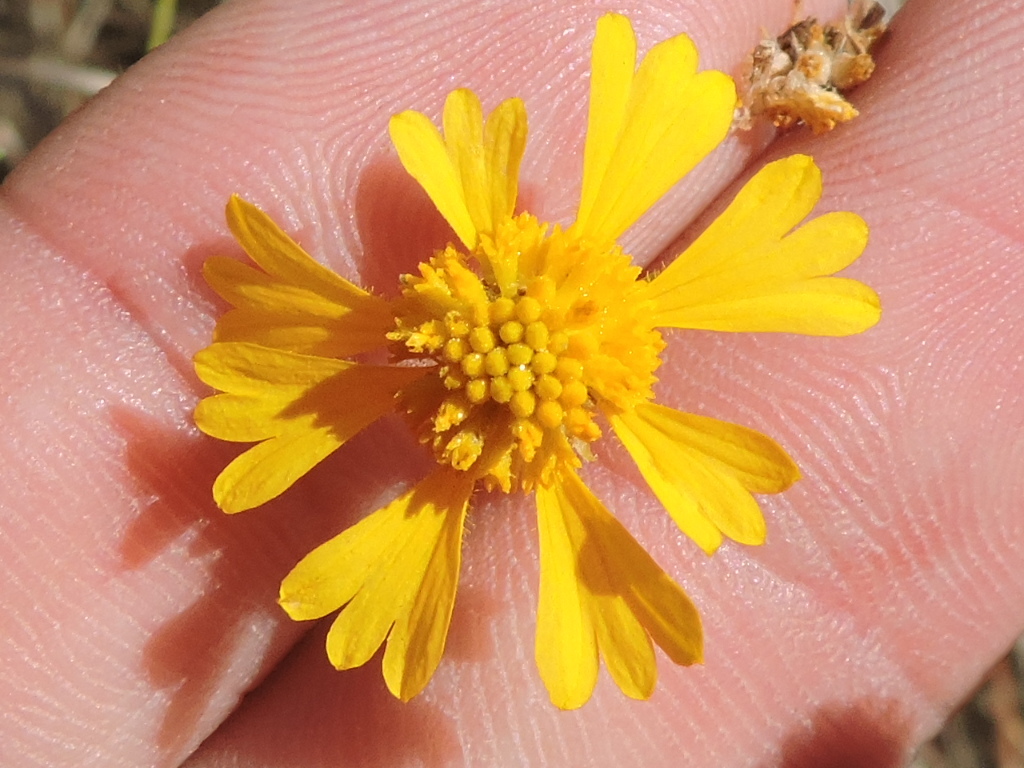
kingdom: Plantae
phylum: Tracheophyta
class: Magnoliopsida
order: Asterales
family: Asteraceae
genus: Helenium
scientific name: Helenium amarum
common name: Bitter sneezeweed
